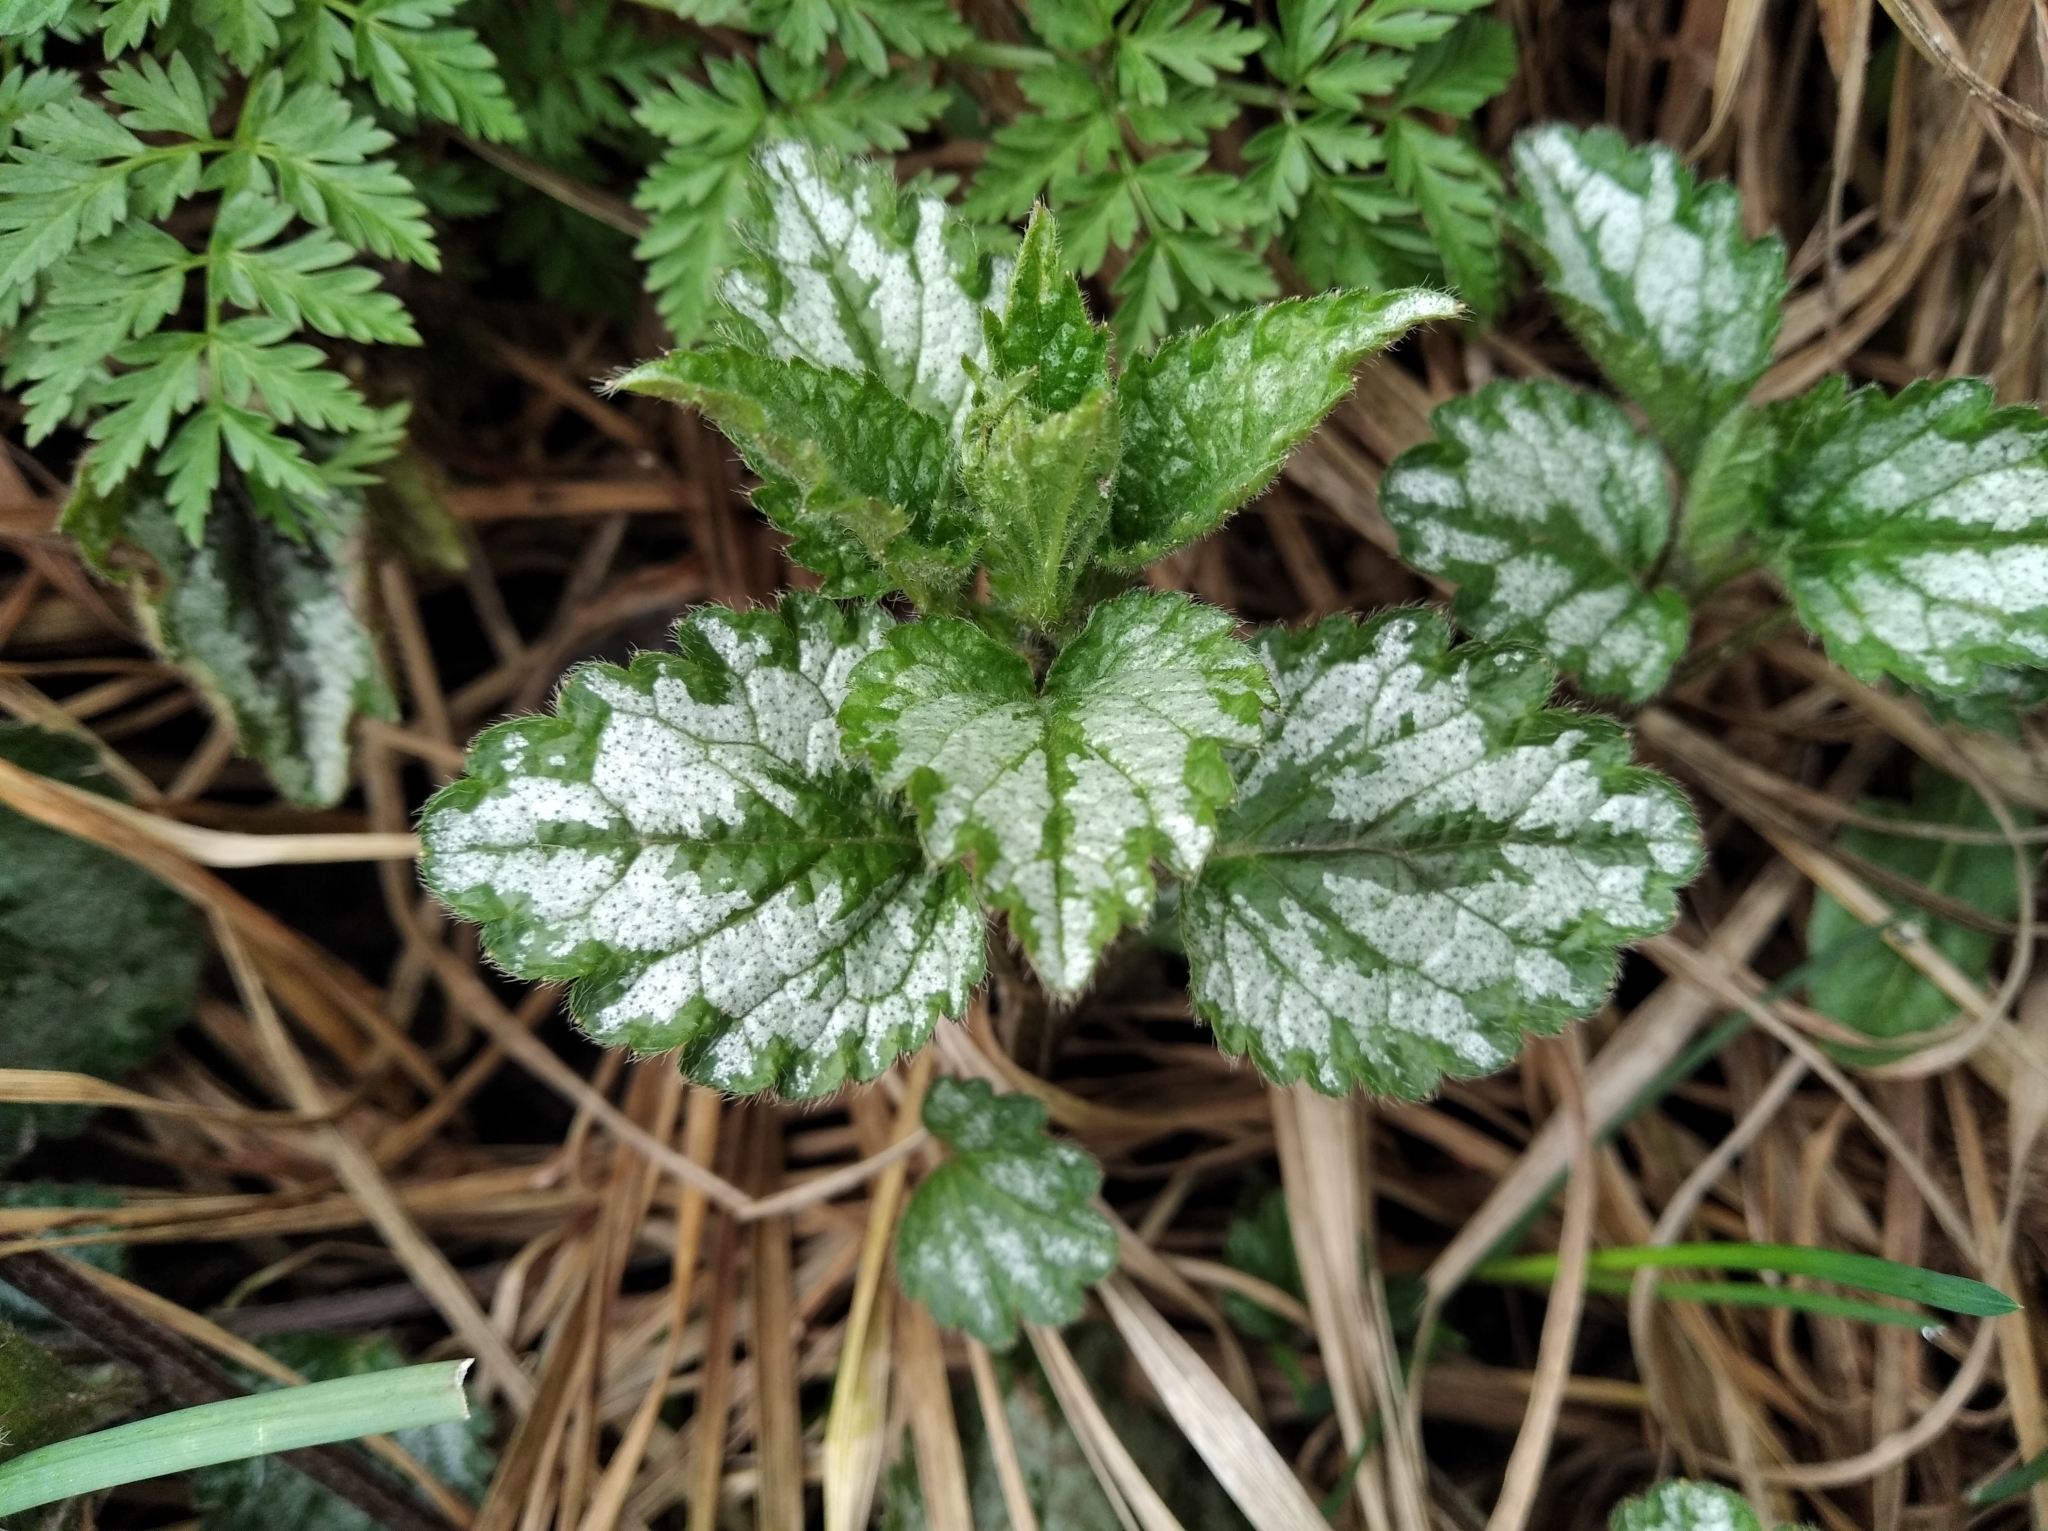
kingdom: Plantae
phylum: Tracheophyta
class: Magnoliopsida
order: Lamiales
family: Lamiaceae
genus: Lamium
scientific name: Lamium galeobdolon
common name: Yellow archangel
